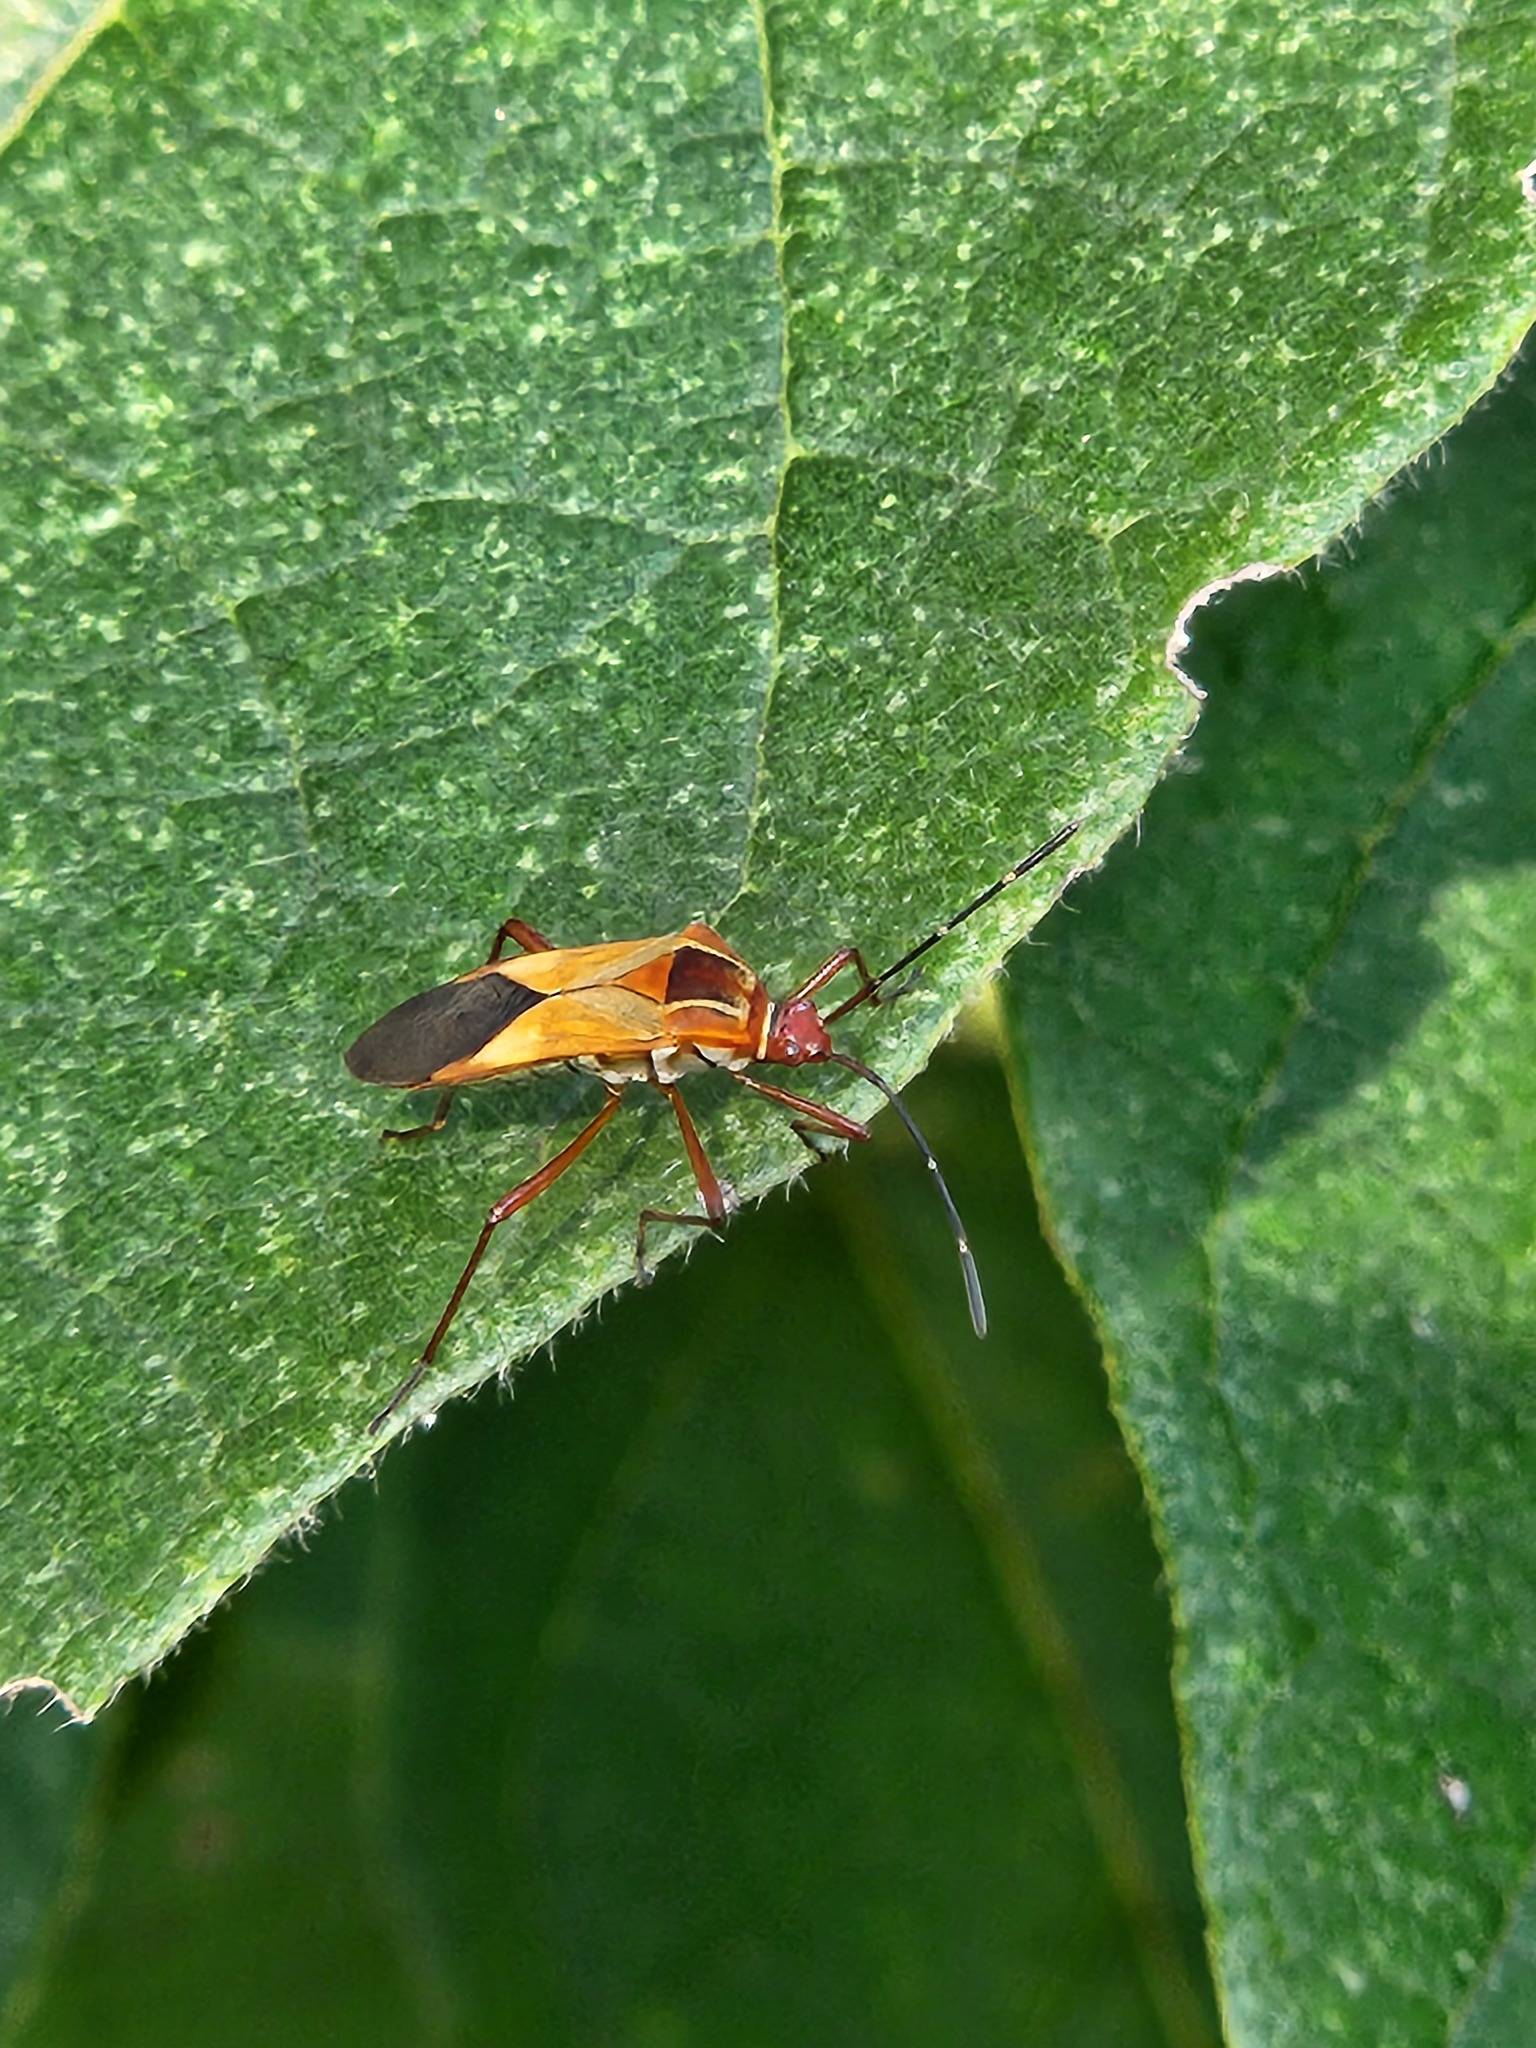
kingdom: Animalia
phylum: Arthropoda
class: Insecta
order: Hemiptera
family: Coreidae
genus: Hypselonotus
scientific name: Hypselonotus interruptus
